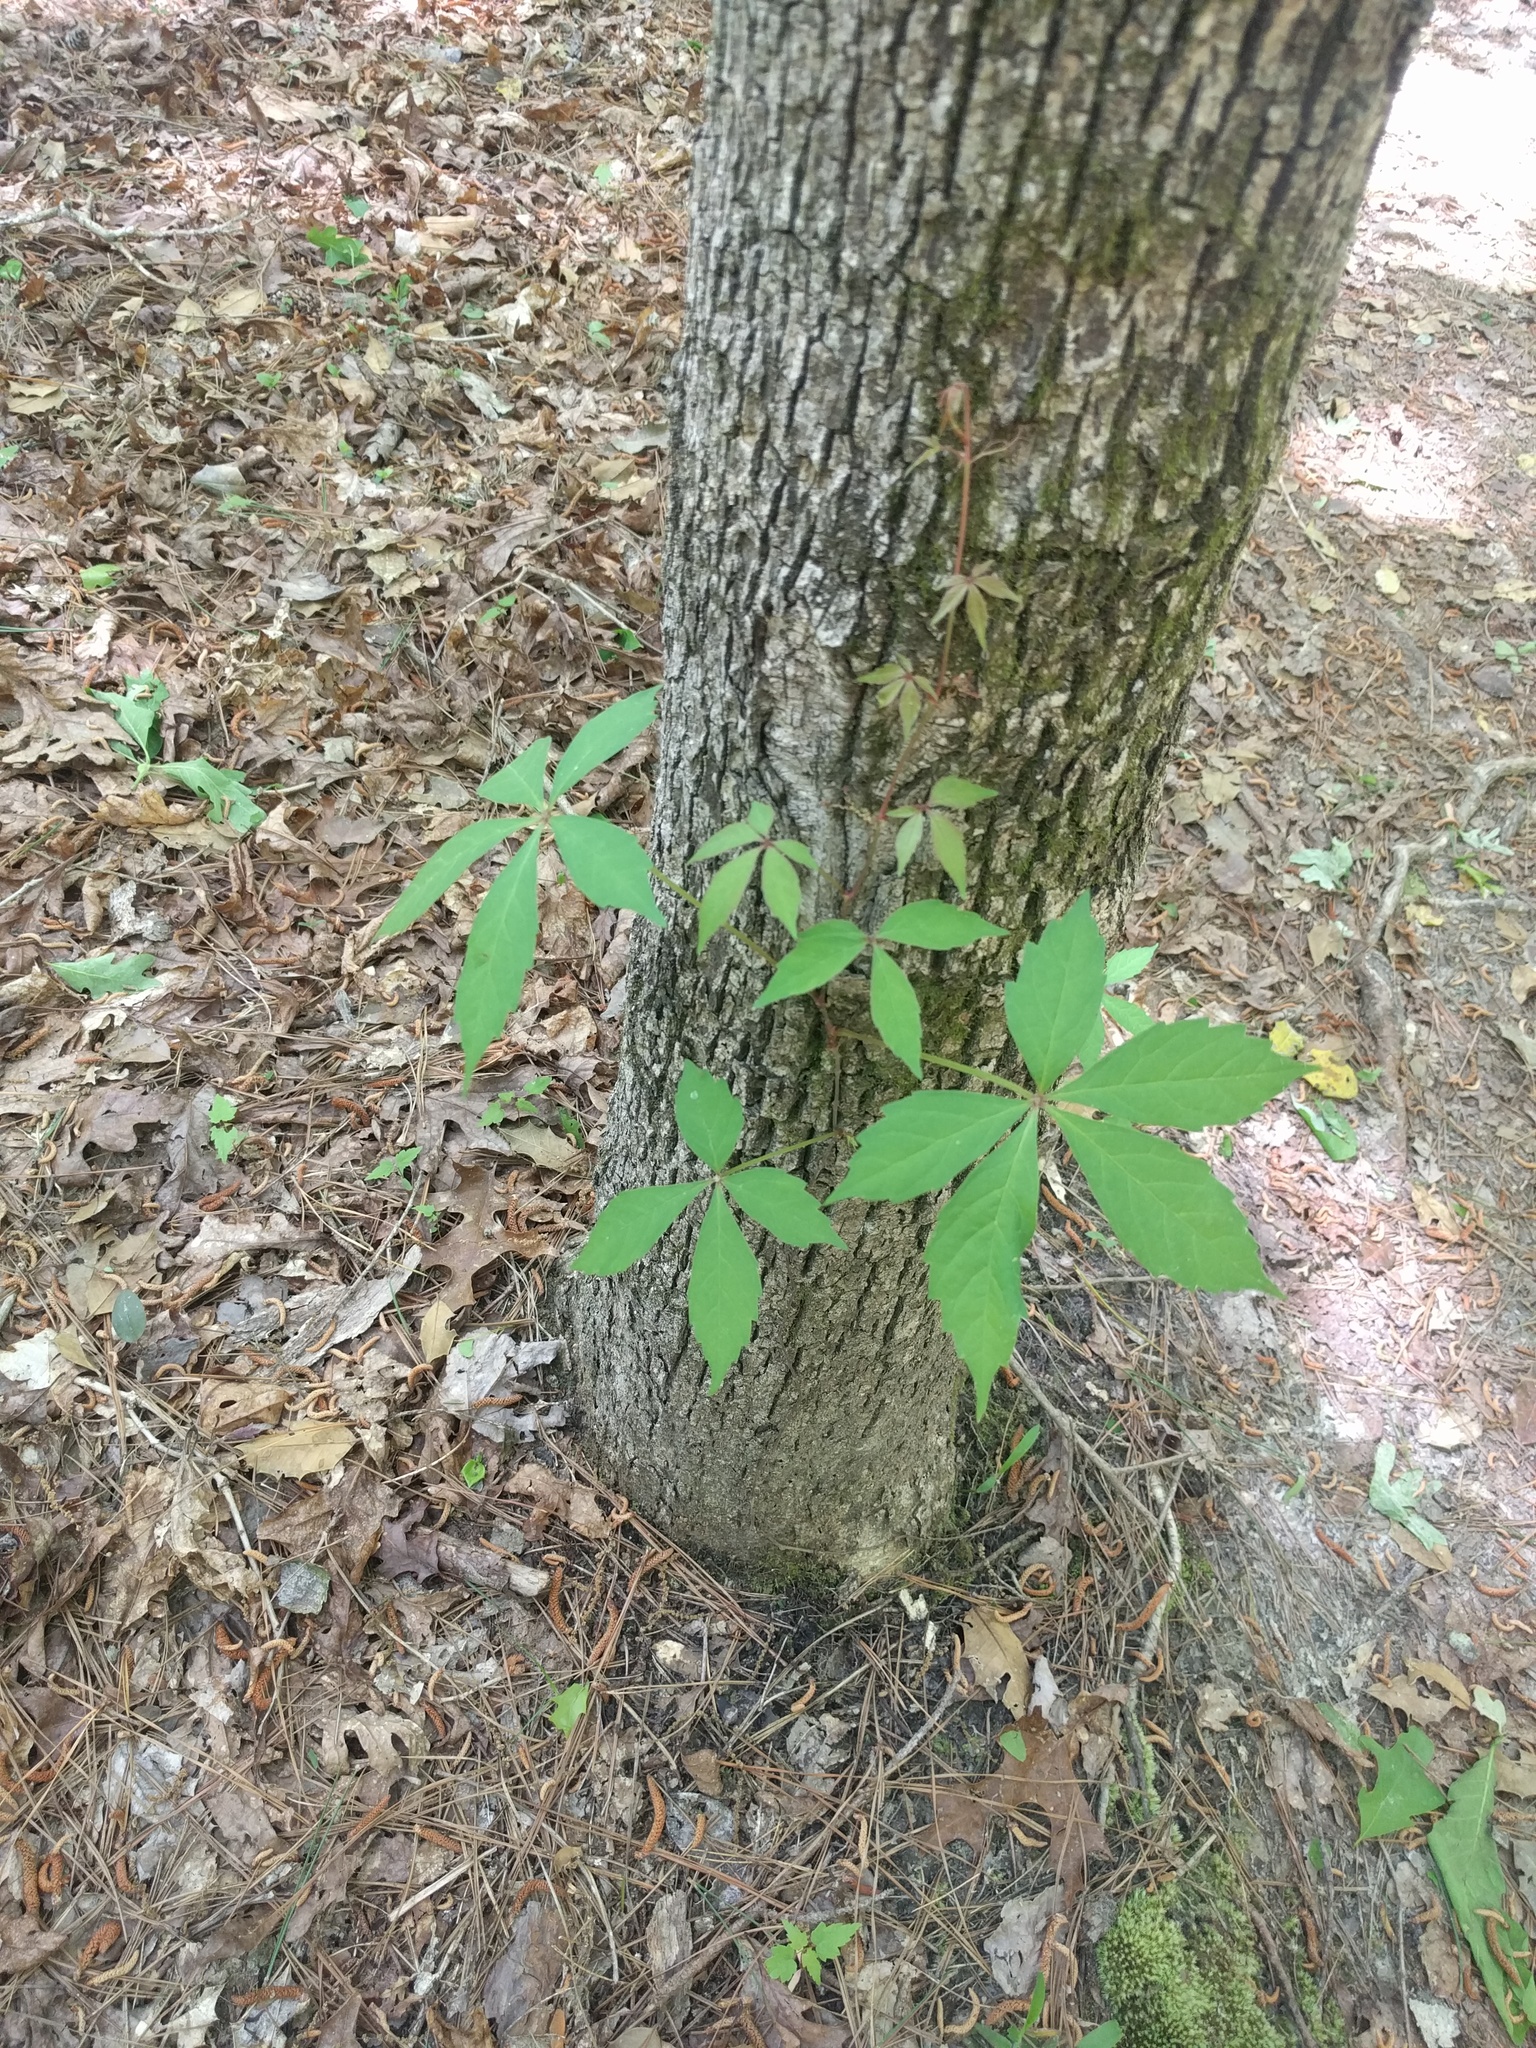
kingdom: Plantae
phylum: Tracheophyta
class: Magnoliopsida
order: Vitales
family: Vitaceae
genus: Parthenocissus
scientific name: Parthenocissus quinquefolia
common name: Virginia-creeper
